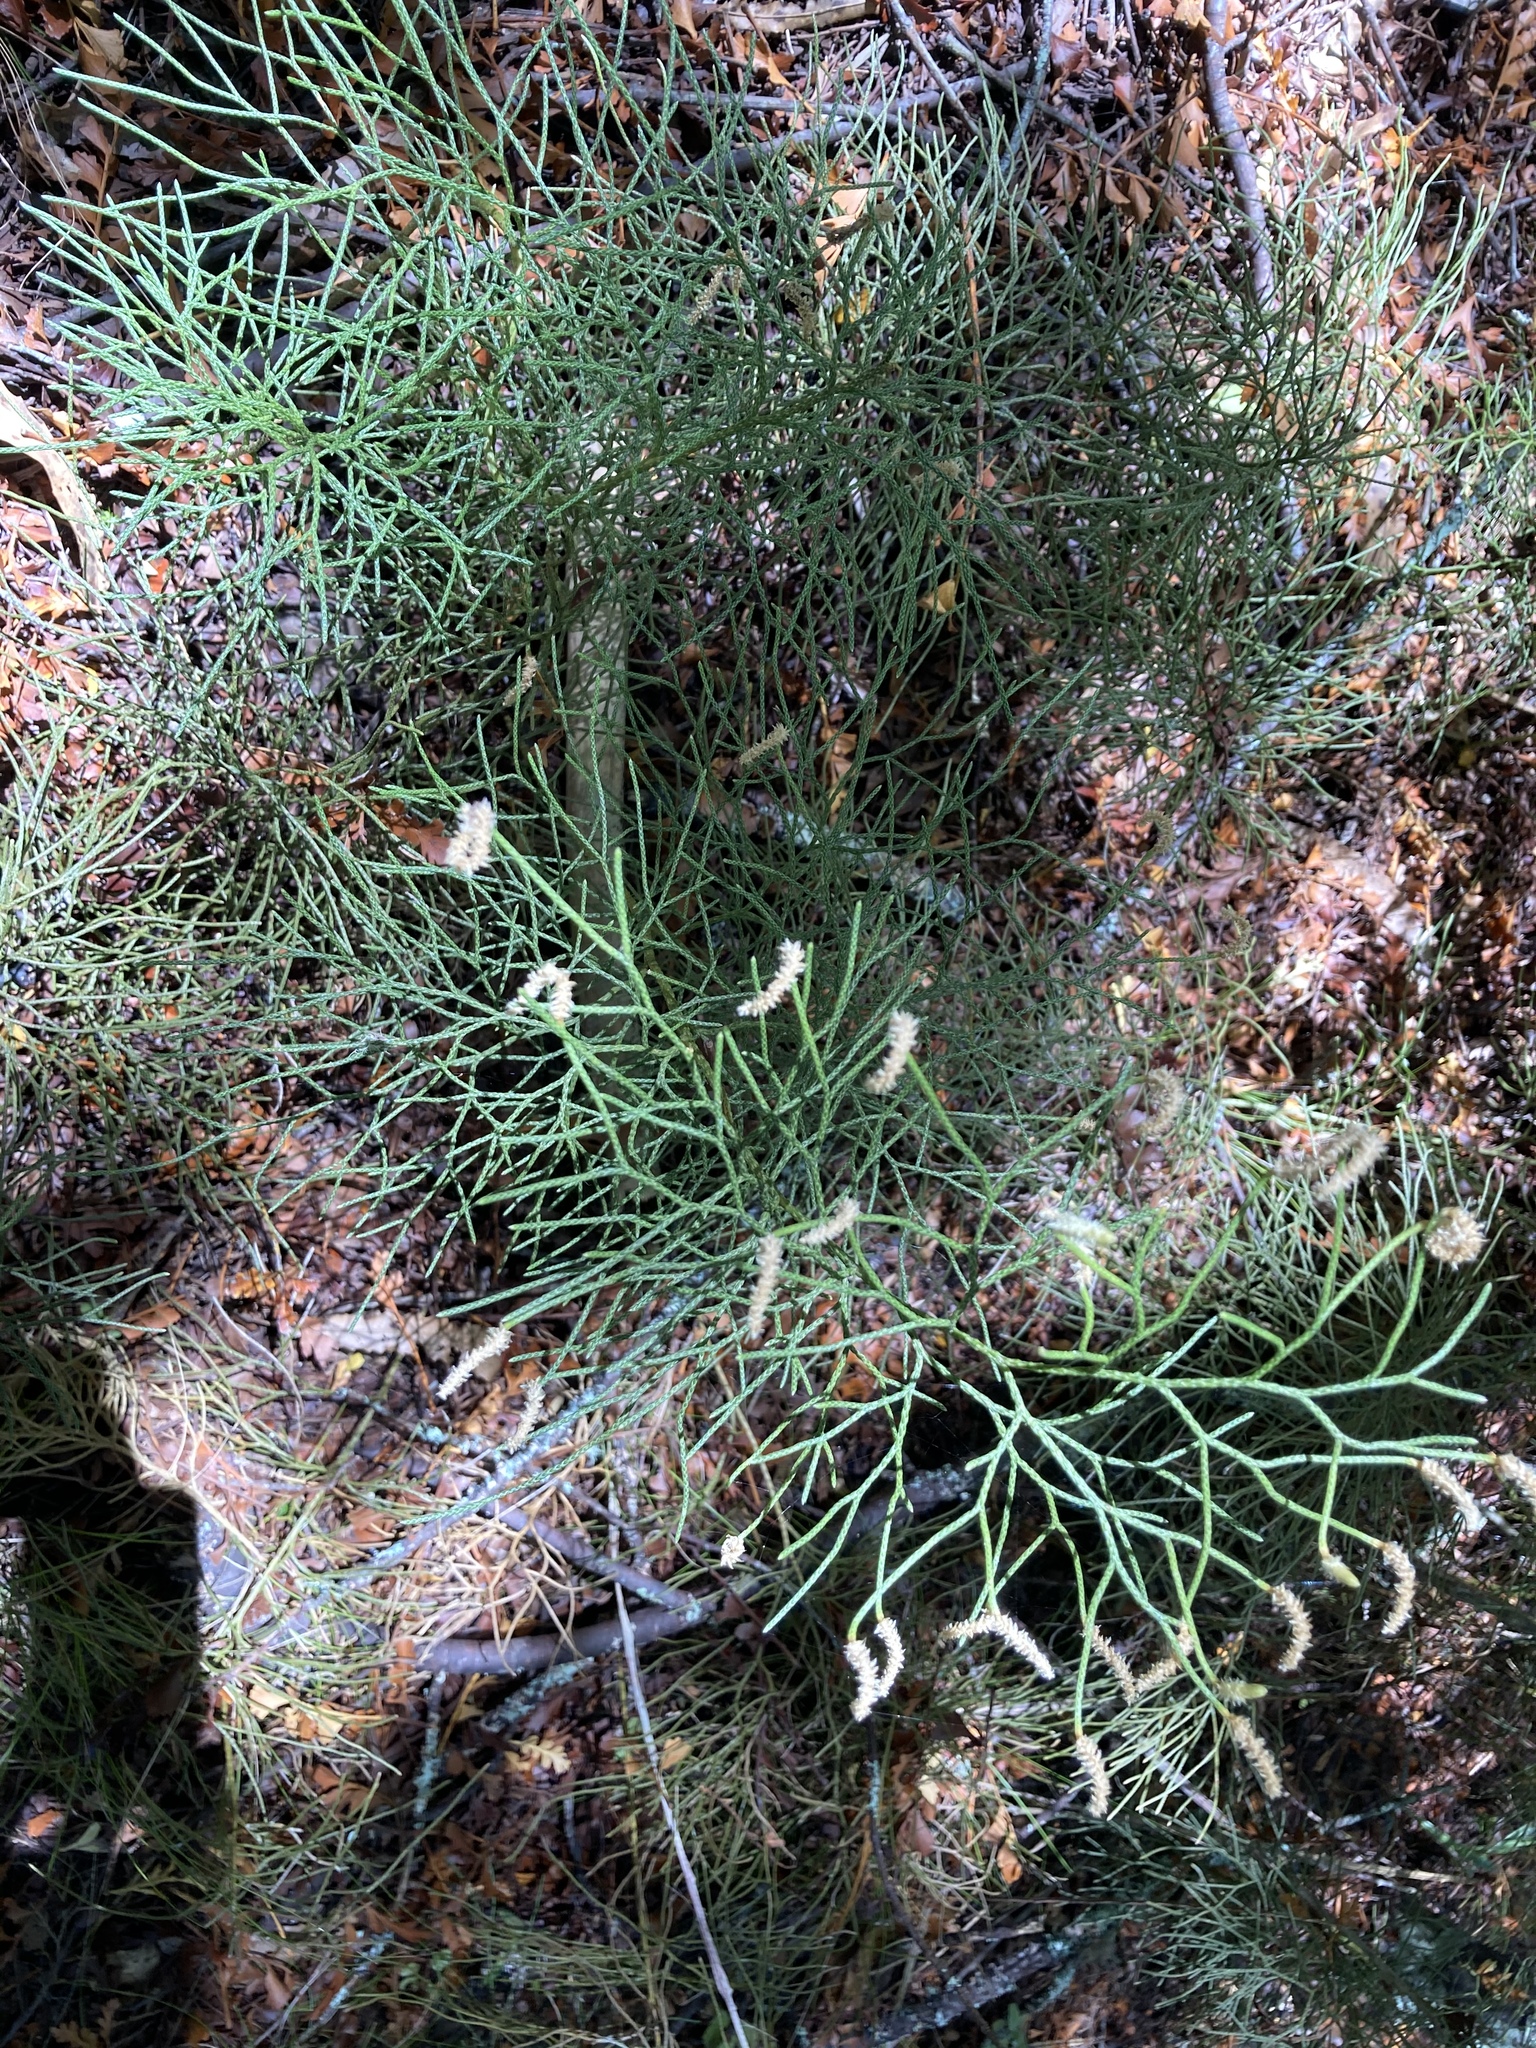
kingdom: Plantae
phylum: Tracheophyta
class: Lycopodiopsida
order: Lycopodiales
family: Lycopodiaceae
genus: Pseudolycopodium
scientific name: Pseudolycopodium densum
